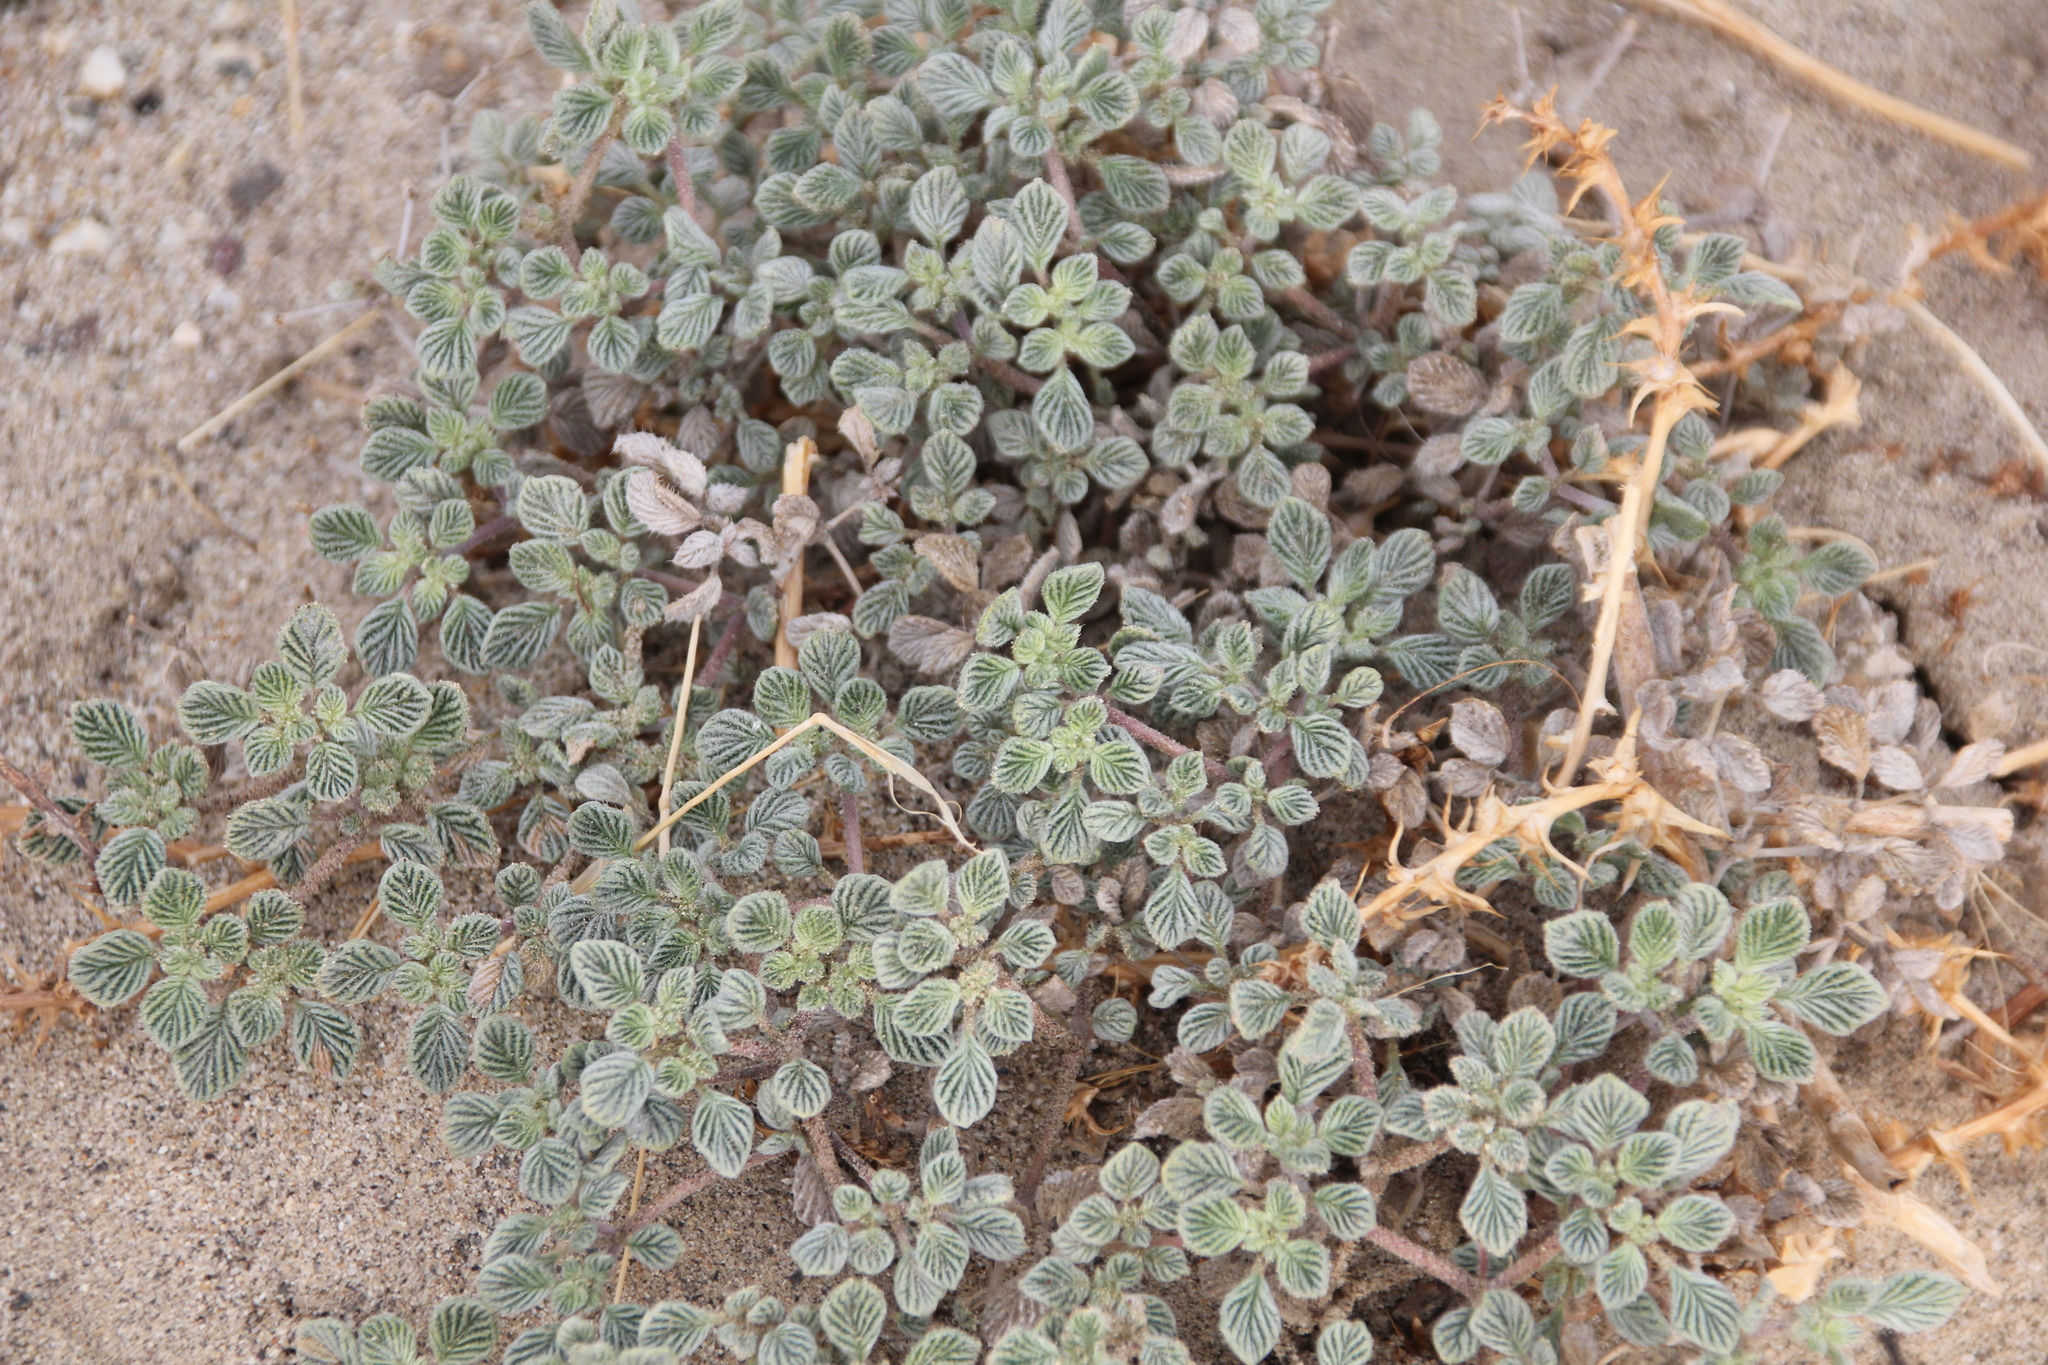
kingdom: Plantae
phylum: Tracheophyta
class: Magnoliopsida
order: Boraginales
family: Ehretiaceae
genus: Tiquilia
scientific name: Tiquilia plicata
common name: Fan-leaf tiquilia
